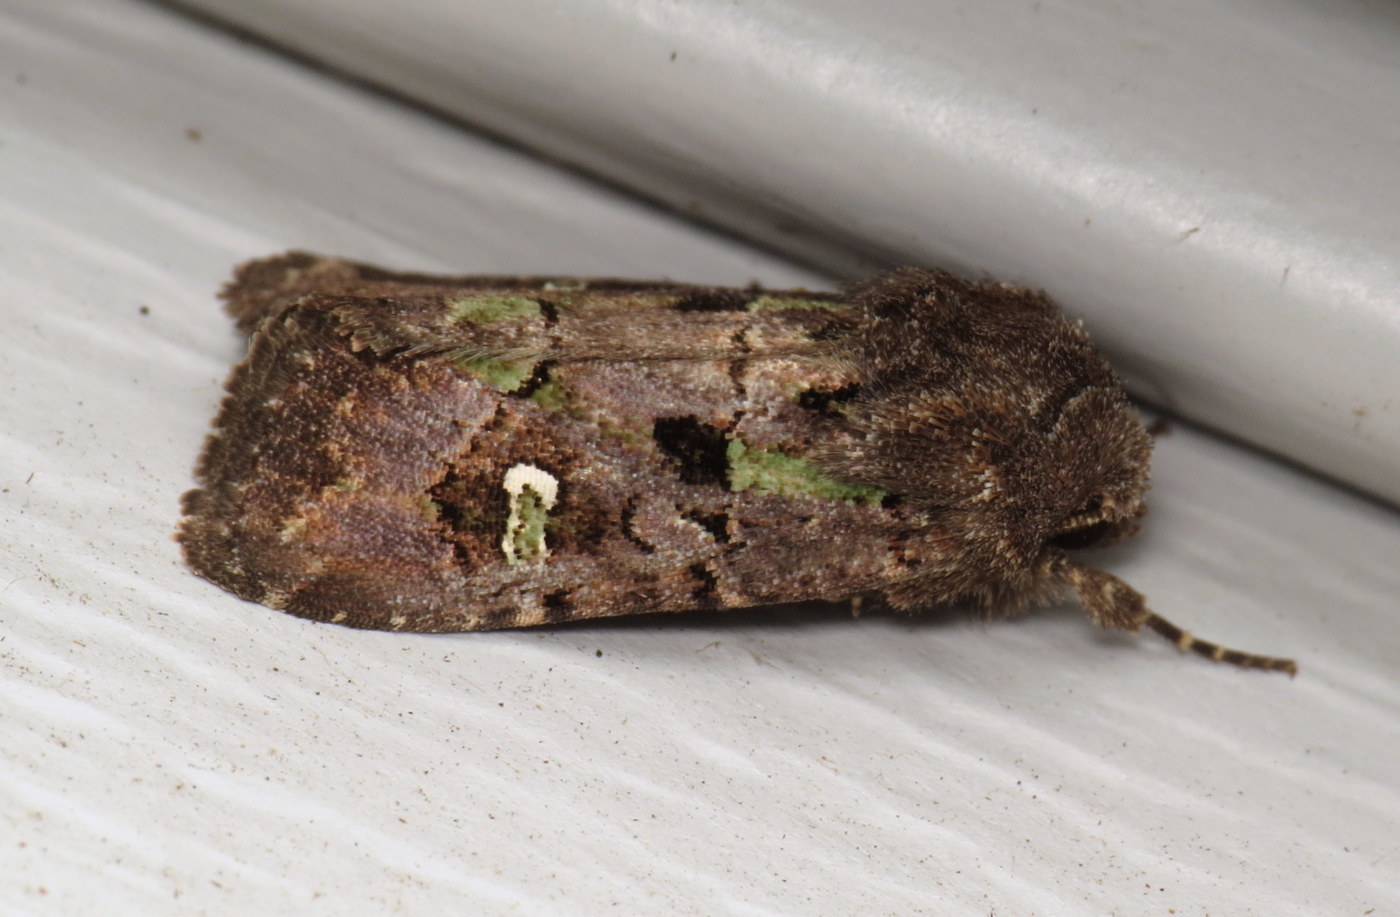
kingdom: Animalia
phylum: Arthropoda
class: Insecta
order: Lepidoptera
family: Noctuidae
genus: Lacinipolia
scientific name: Lacinipolia renigera
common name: Kidney-spotted minor
